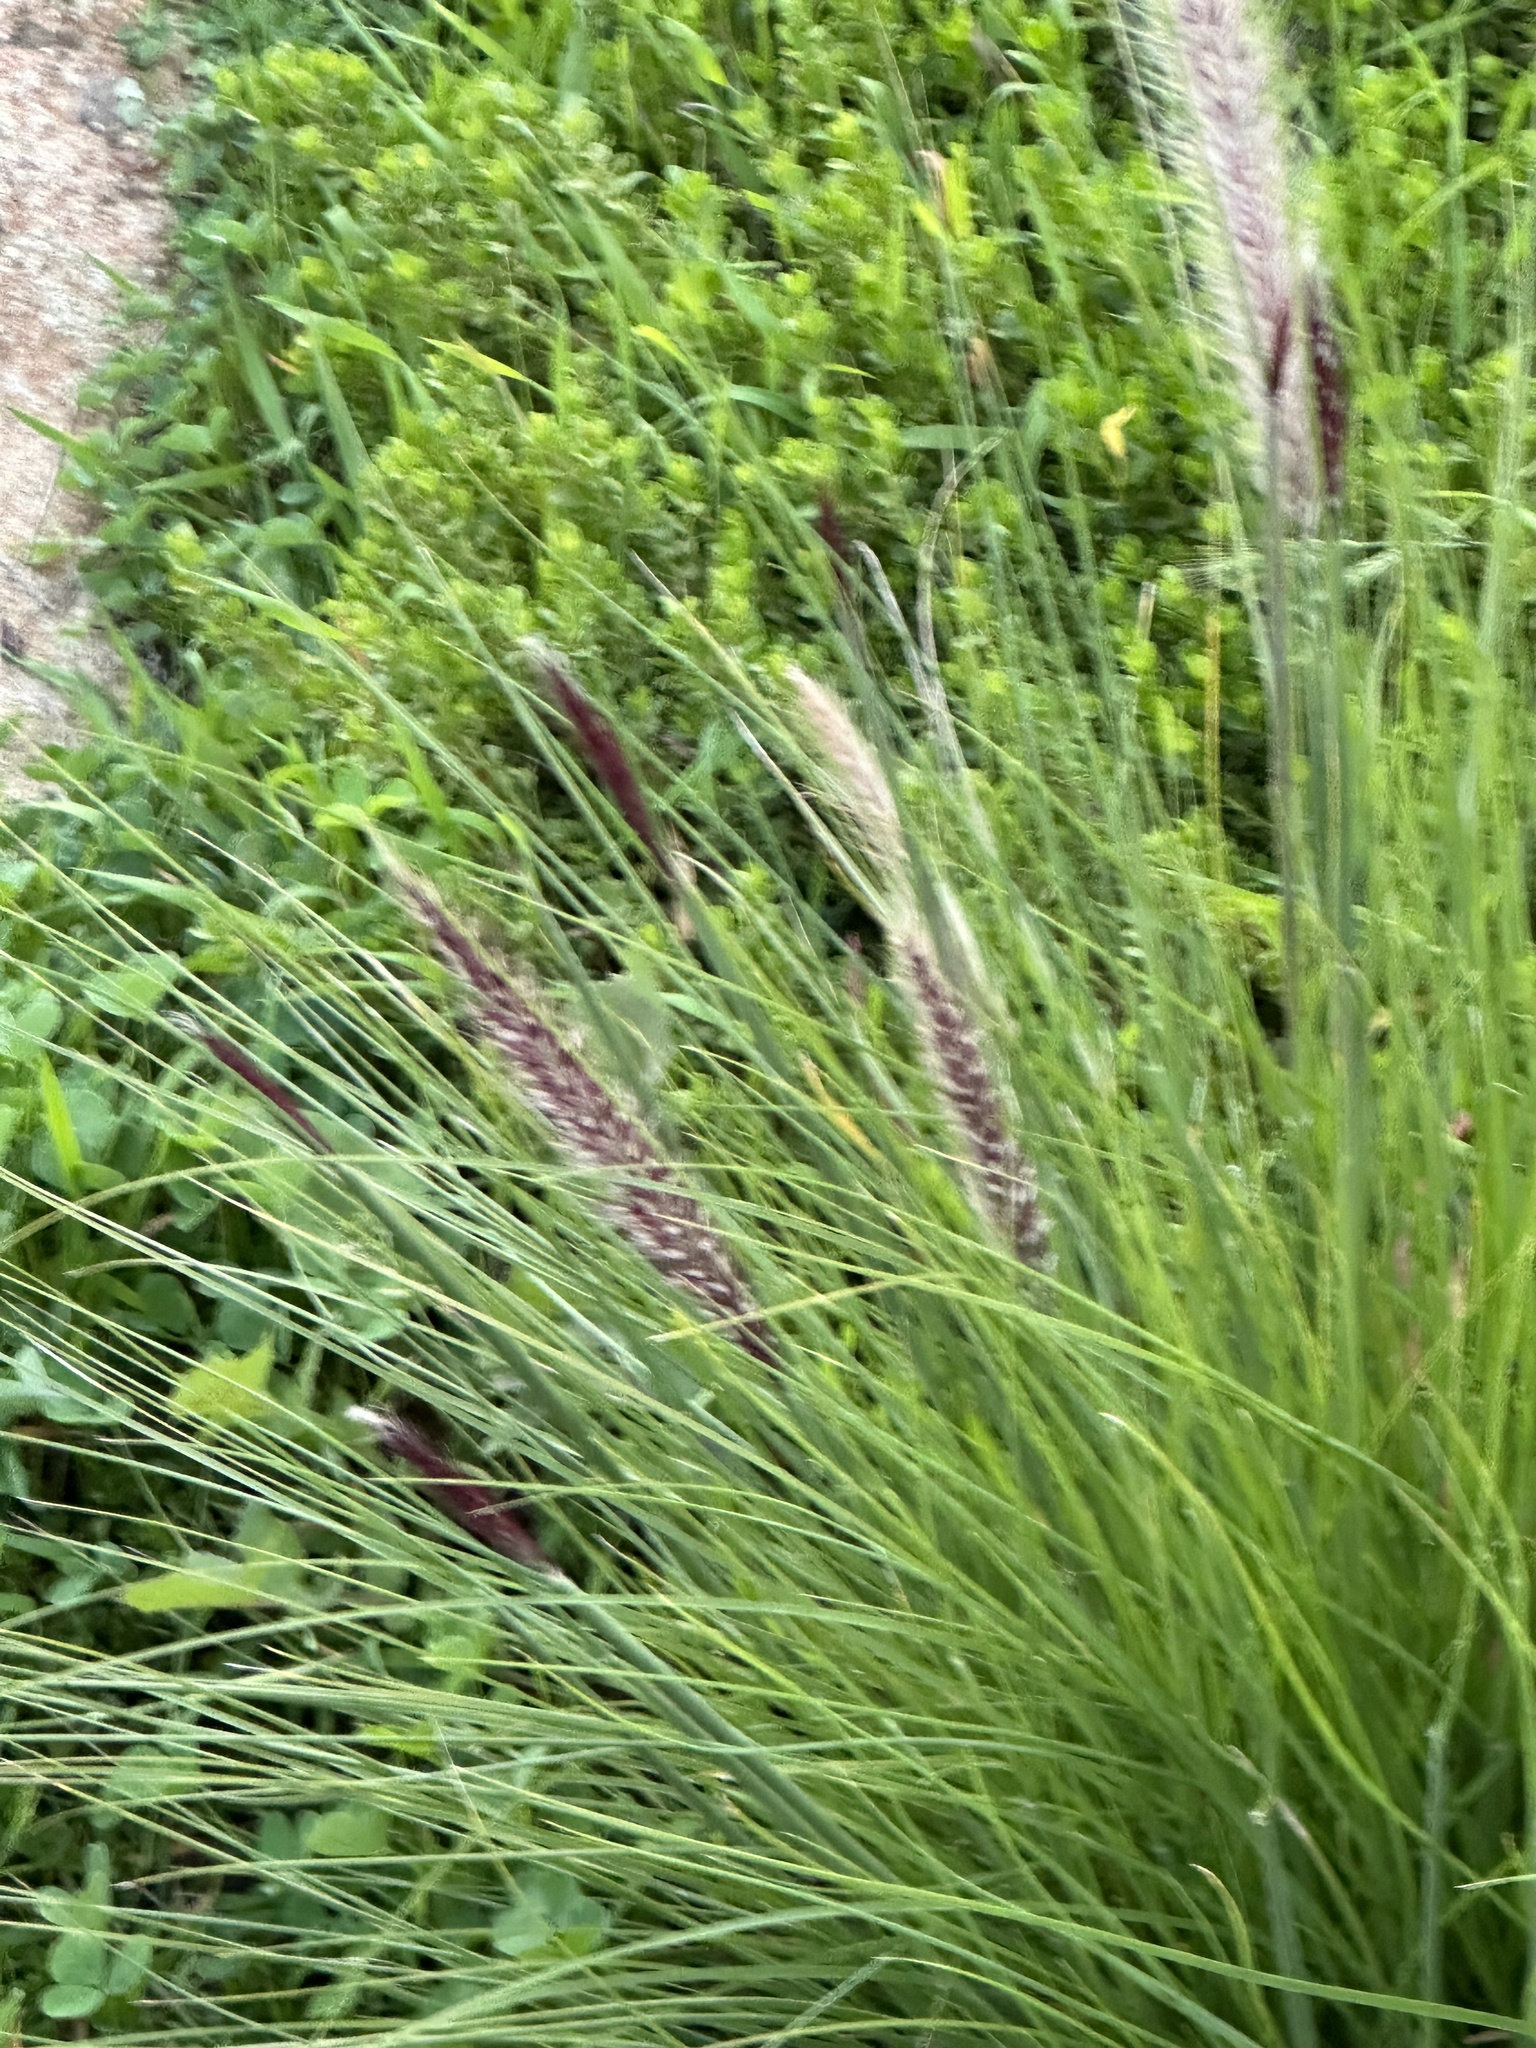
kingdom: Plantae
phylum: Tracheophyta
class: Liliopsida
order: Poales
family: Poaceae
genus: Cenchrus
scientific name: Cenchrus setaceus
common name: Crimson fountaingrass
